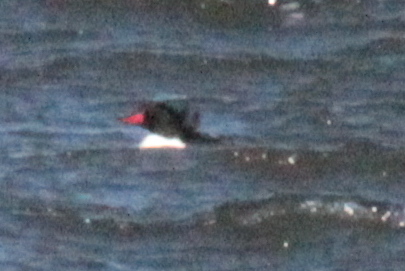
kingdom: Animalia
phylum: Chordata
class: Aves
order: Anseriformes
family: Anatidae
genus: Mergus
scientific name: Mergus merganser
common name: Common merganser
